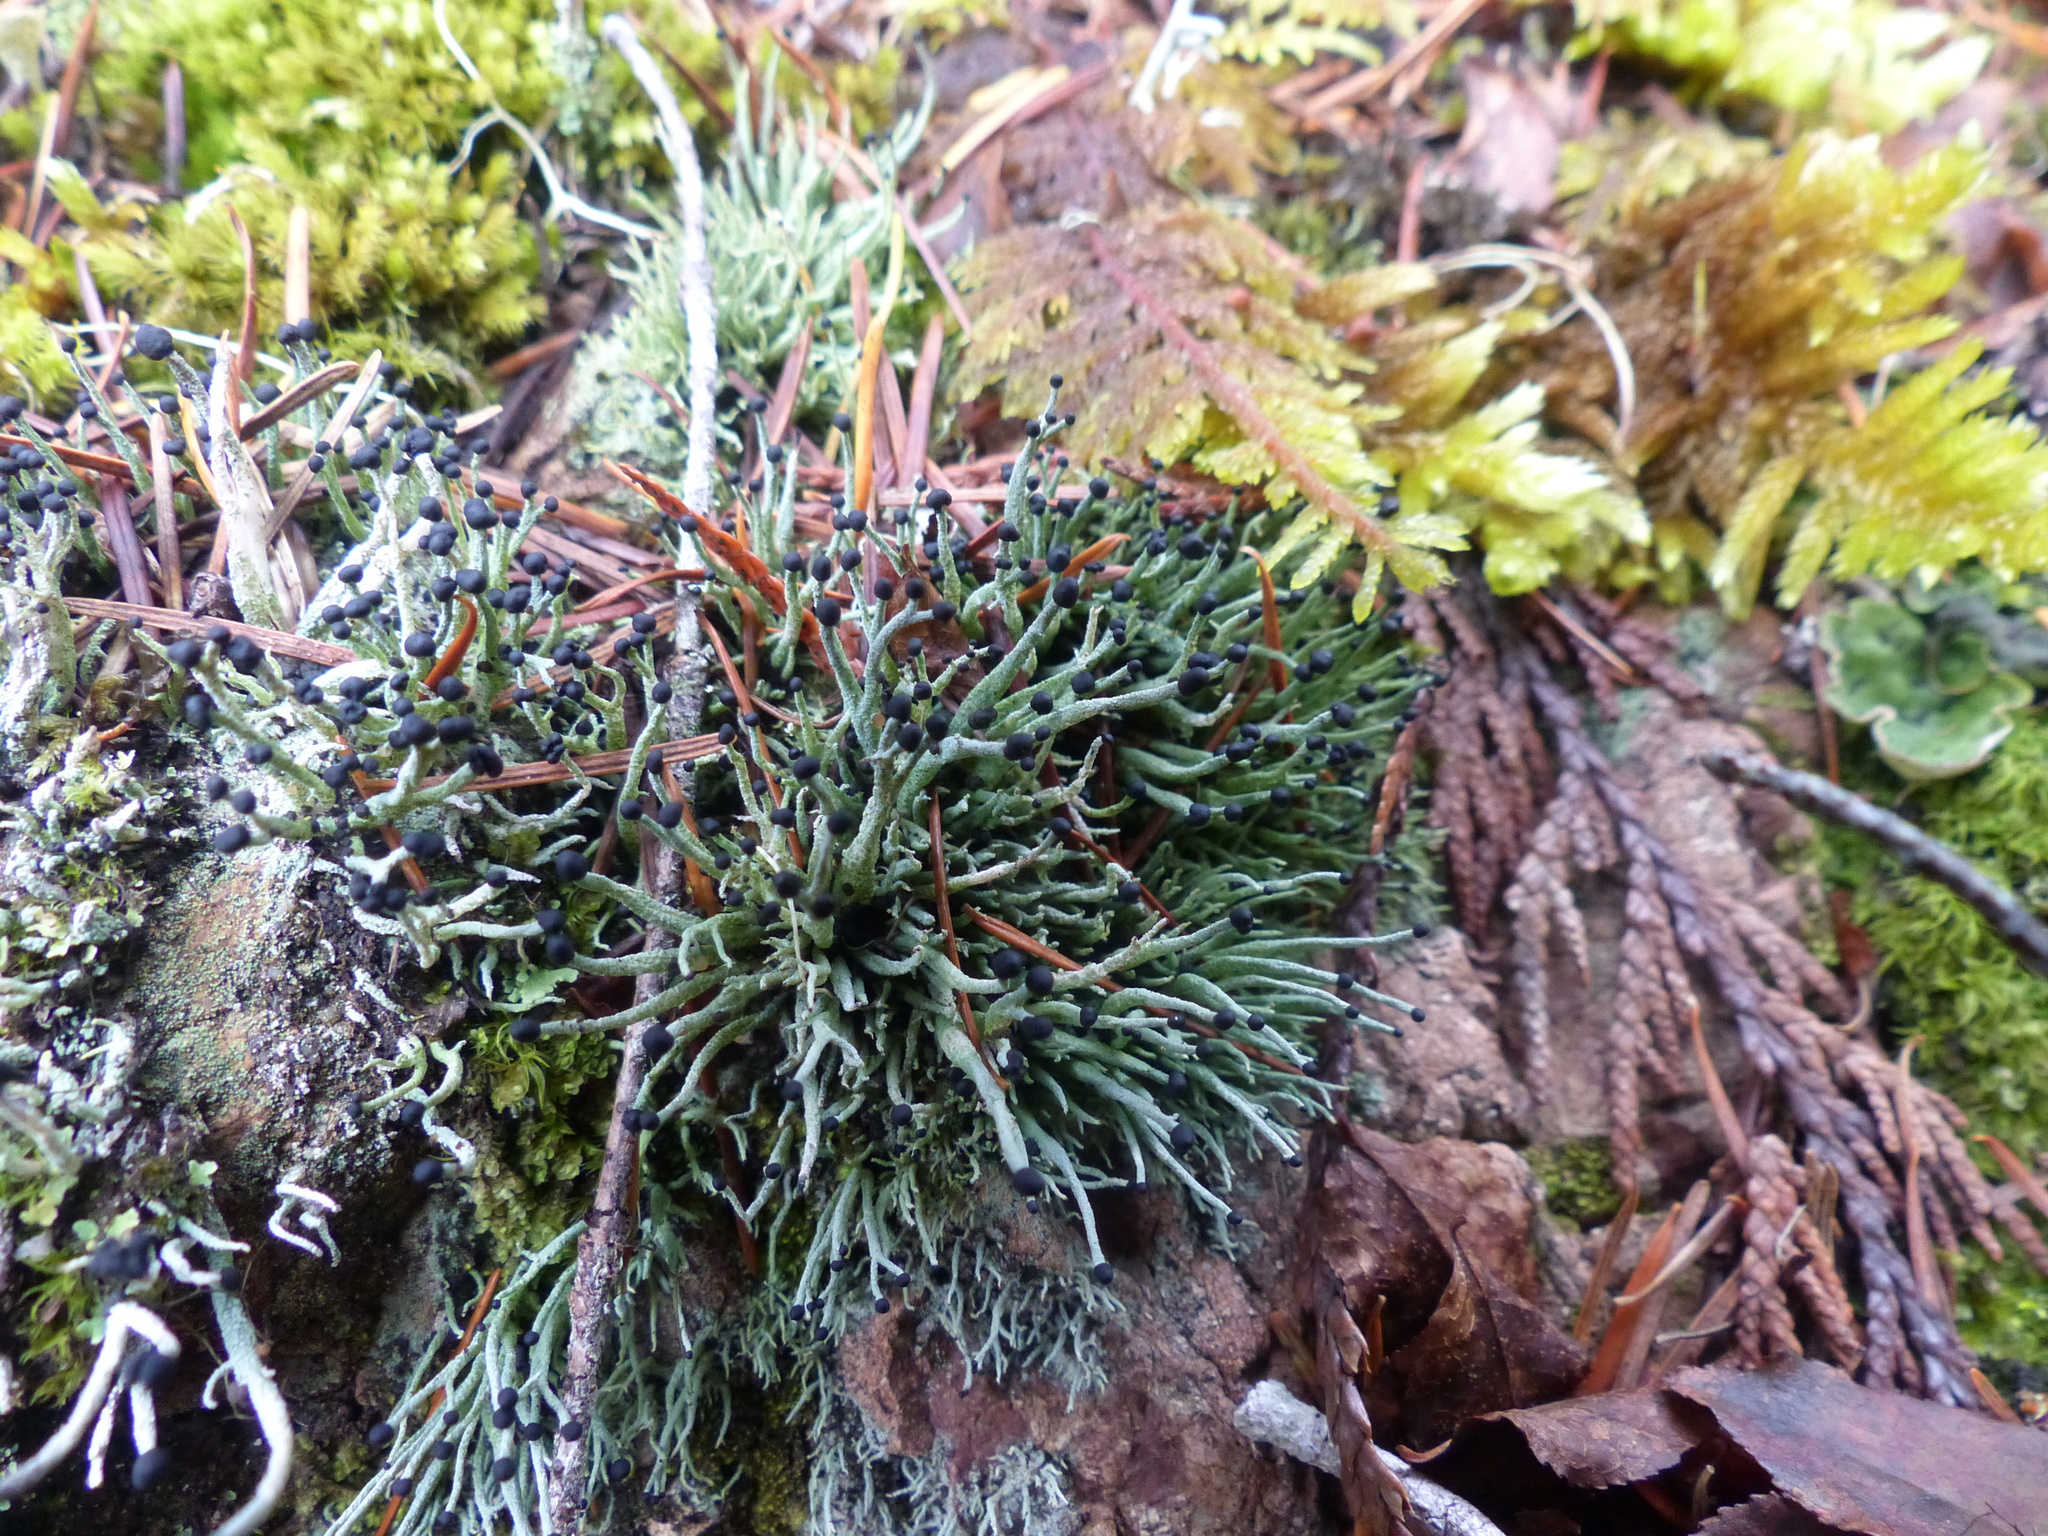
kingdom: Fungi
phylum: Ascomycota
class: Lecanoromycetes
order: Lecanorales
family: Cladoniaceae
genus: Pilophorus
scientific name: Pilophorus acicularis
